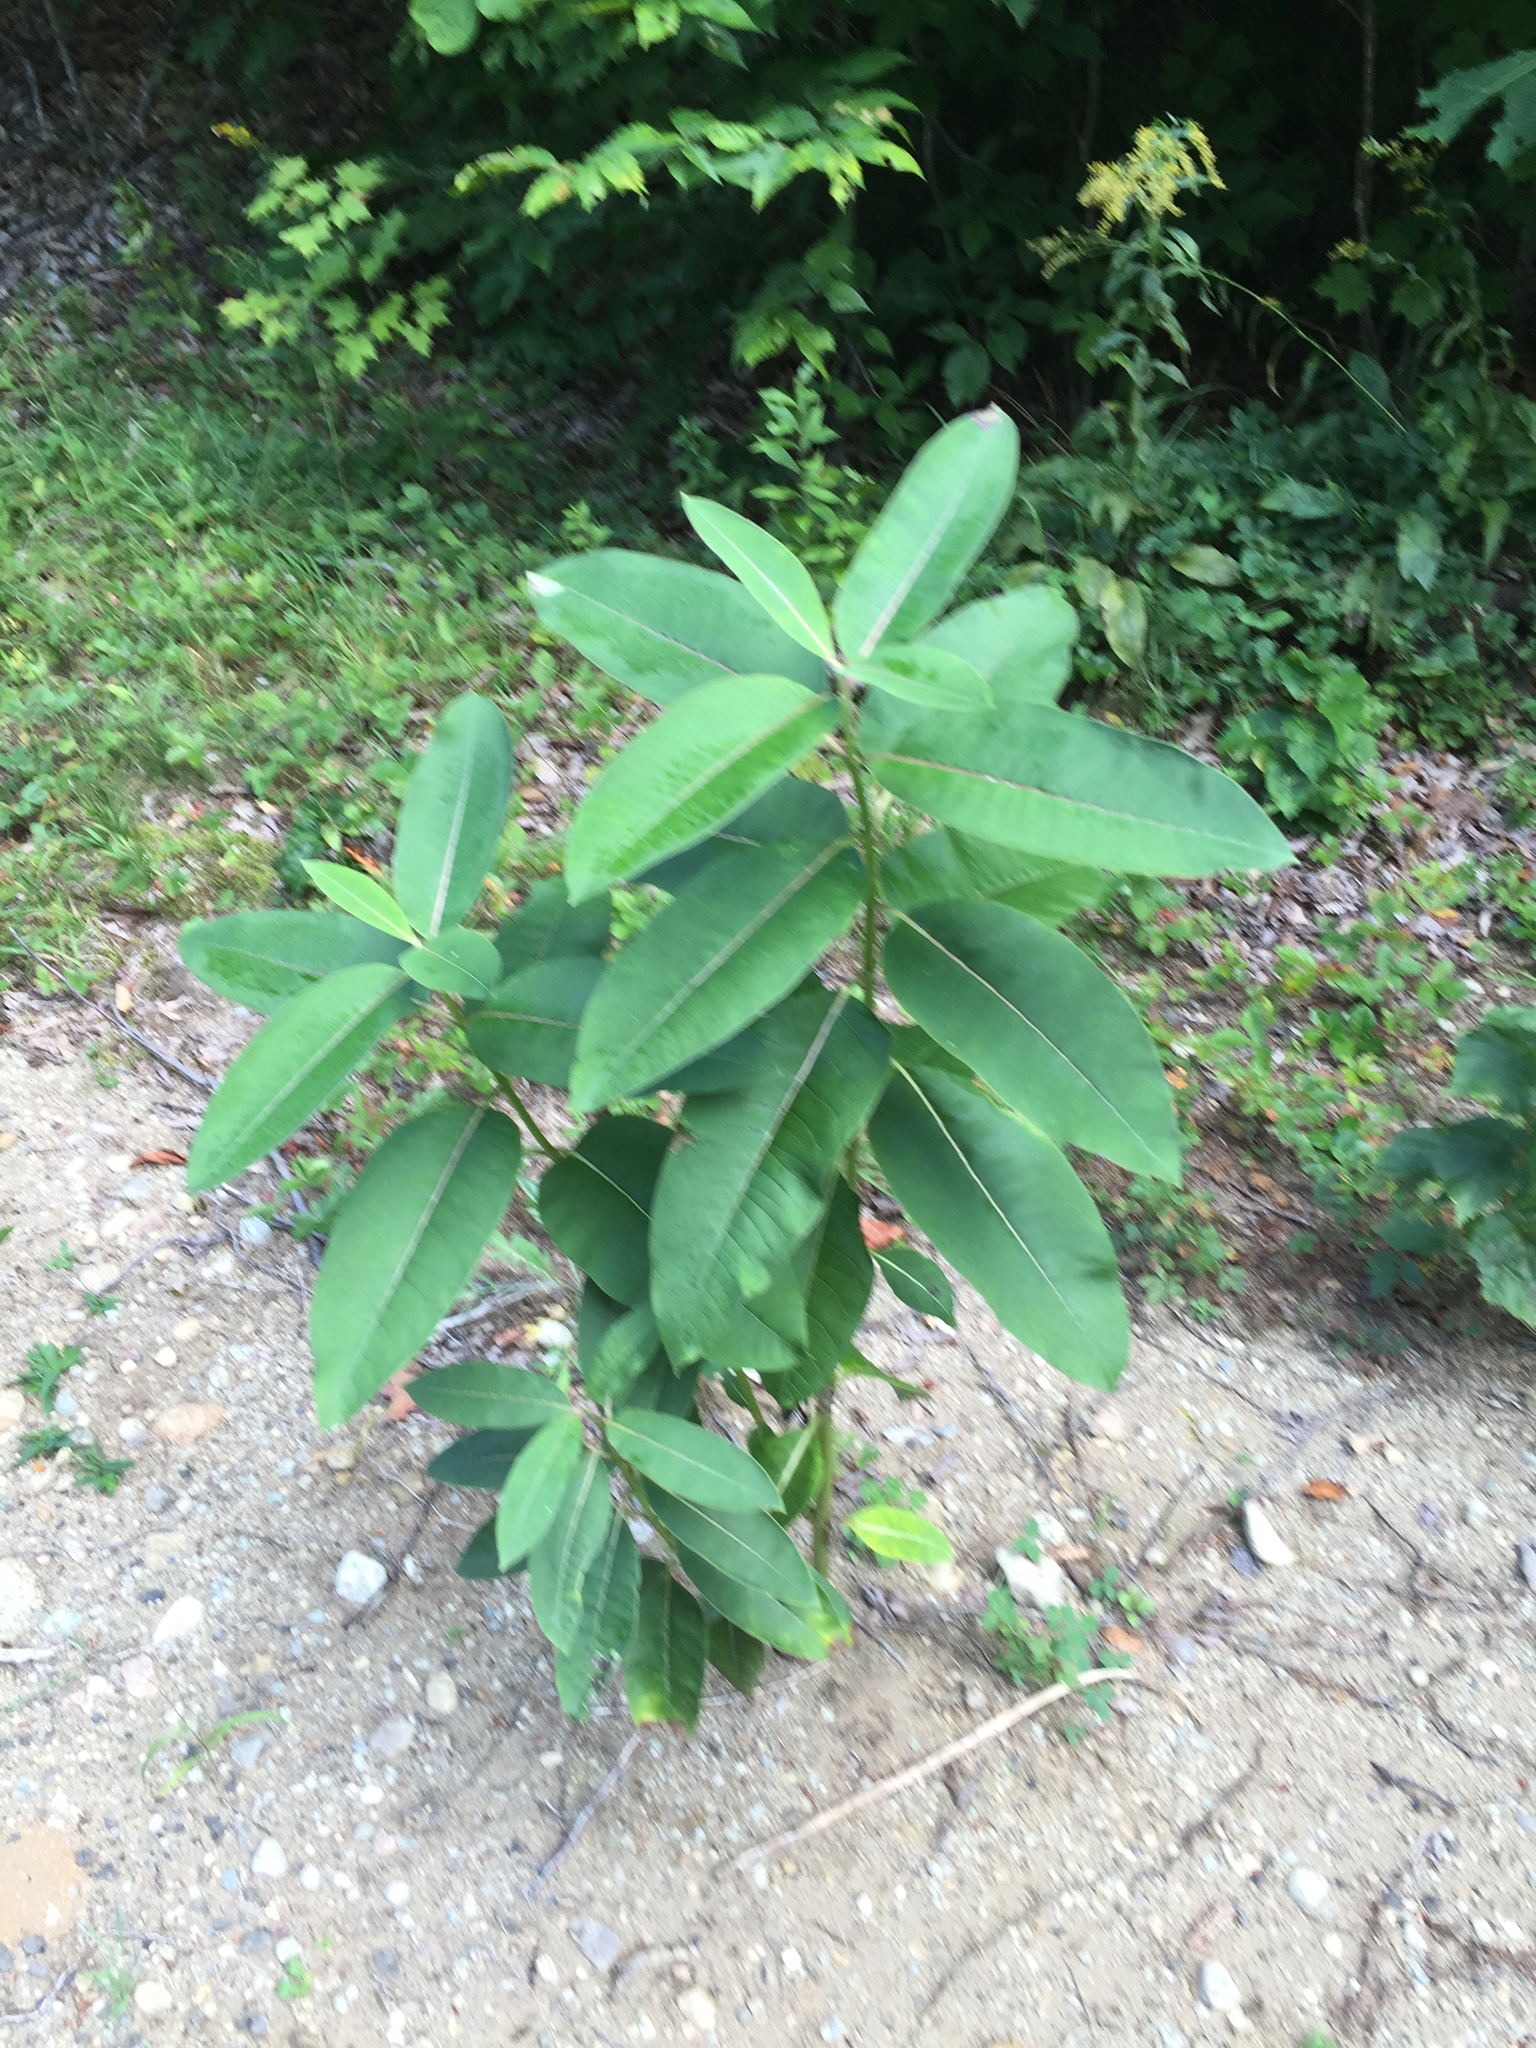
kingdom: Plantae
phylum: Tracheophyta
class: Magnoliopsida
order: Gentianales
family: Apocynaceae
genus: Asclepias
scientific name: Asclepias syriaca
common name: Common milkweed
